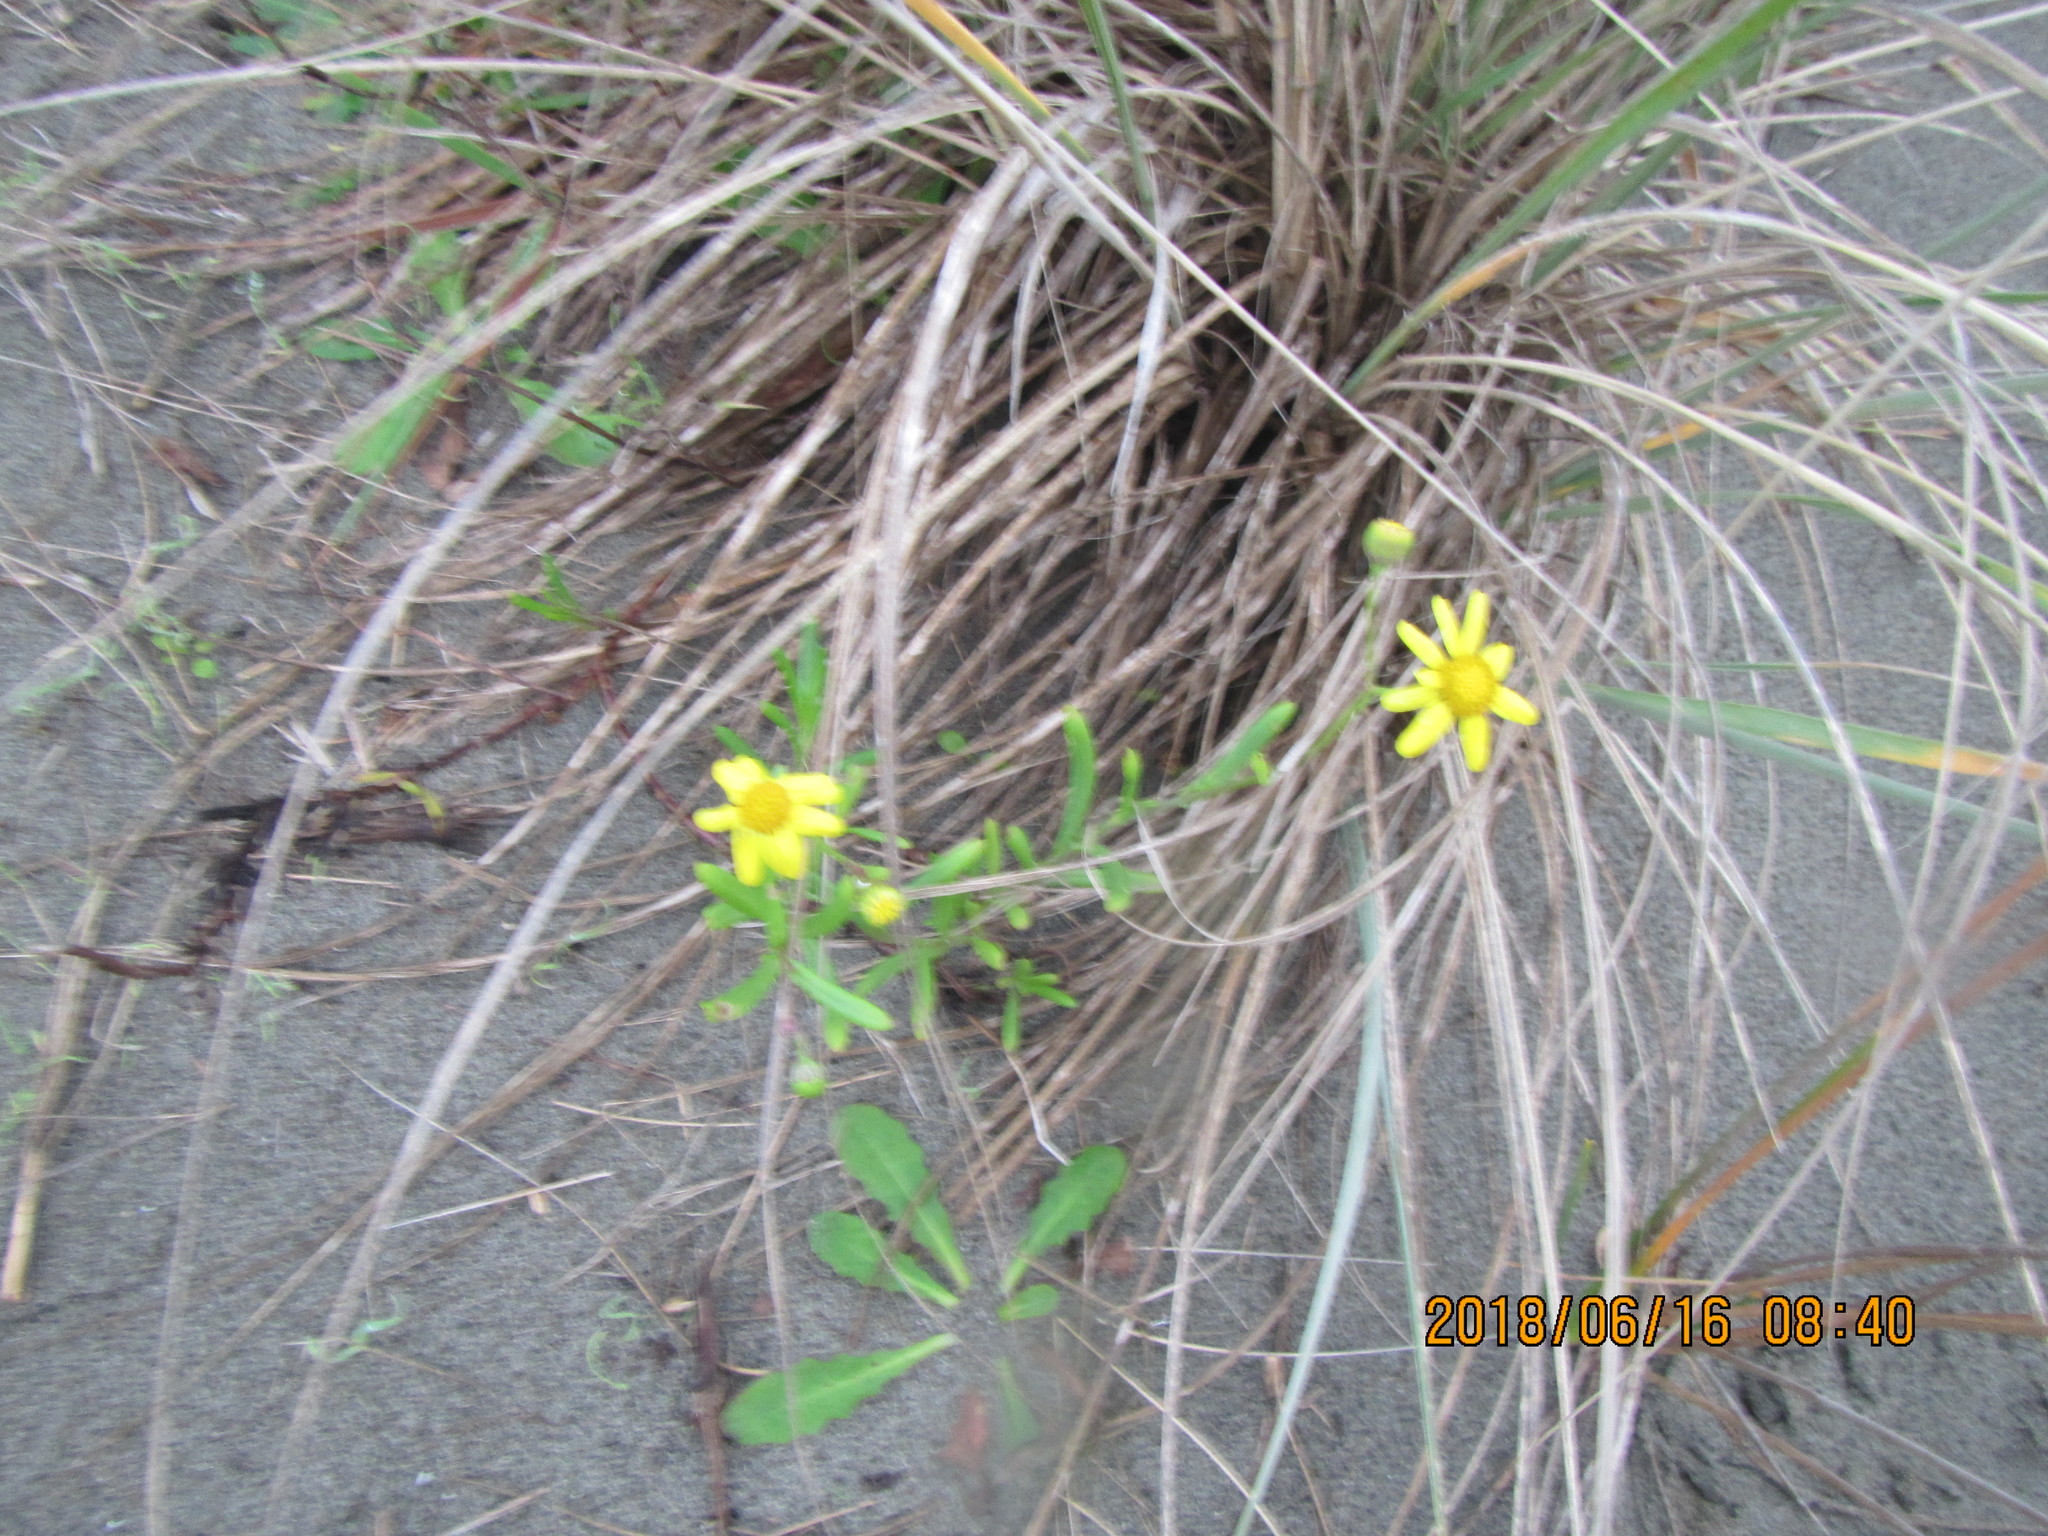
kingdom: Plantae
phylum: Tracheophyta
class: Magnoliopsida
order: Asterales
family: Asteraceae
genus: Senecio
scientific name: Senecio skirrhodon
